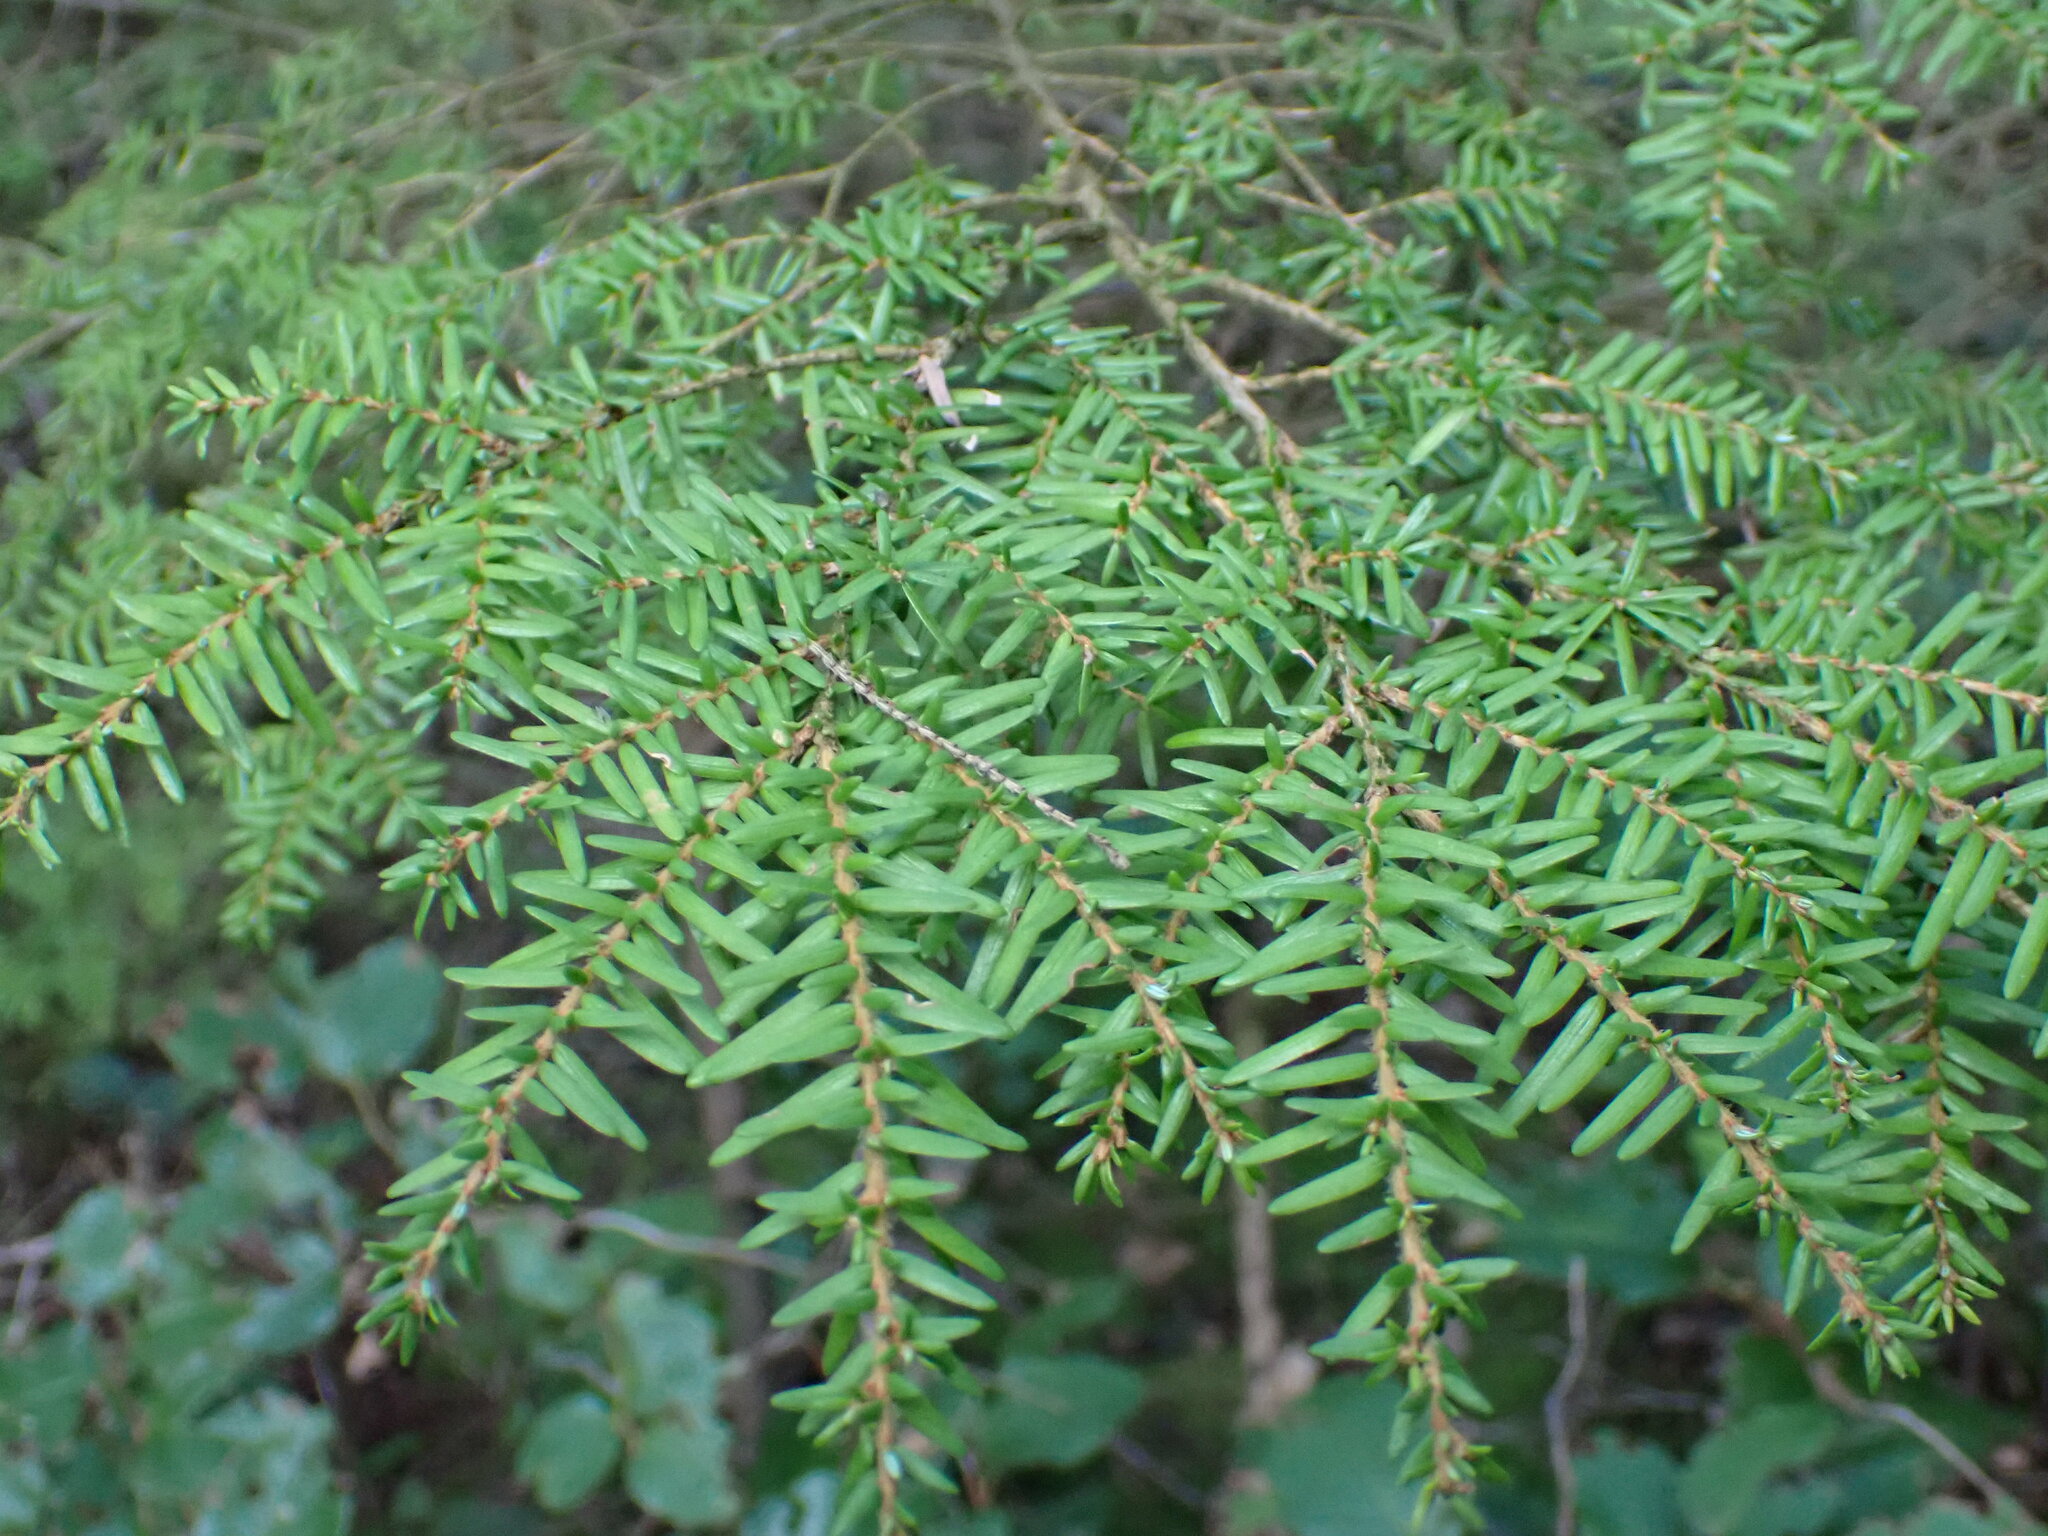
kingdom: Plantae
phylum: Tracheophyta
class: Pinopsida
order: Pinales
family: Pinaceae
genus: Tsuga
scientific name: Tsuga heterophylla
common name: Western hemlock
